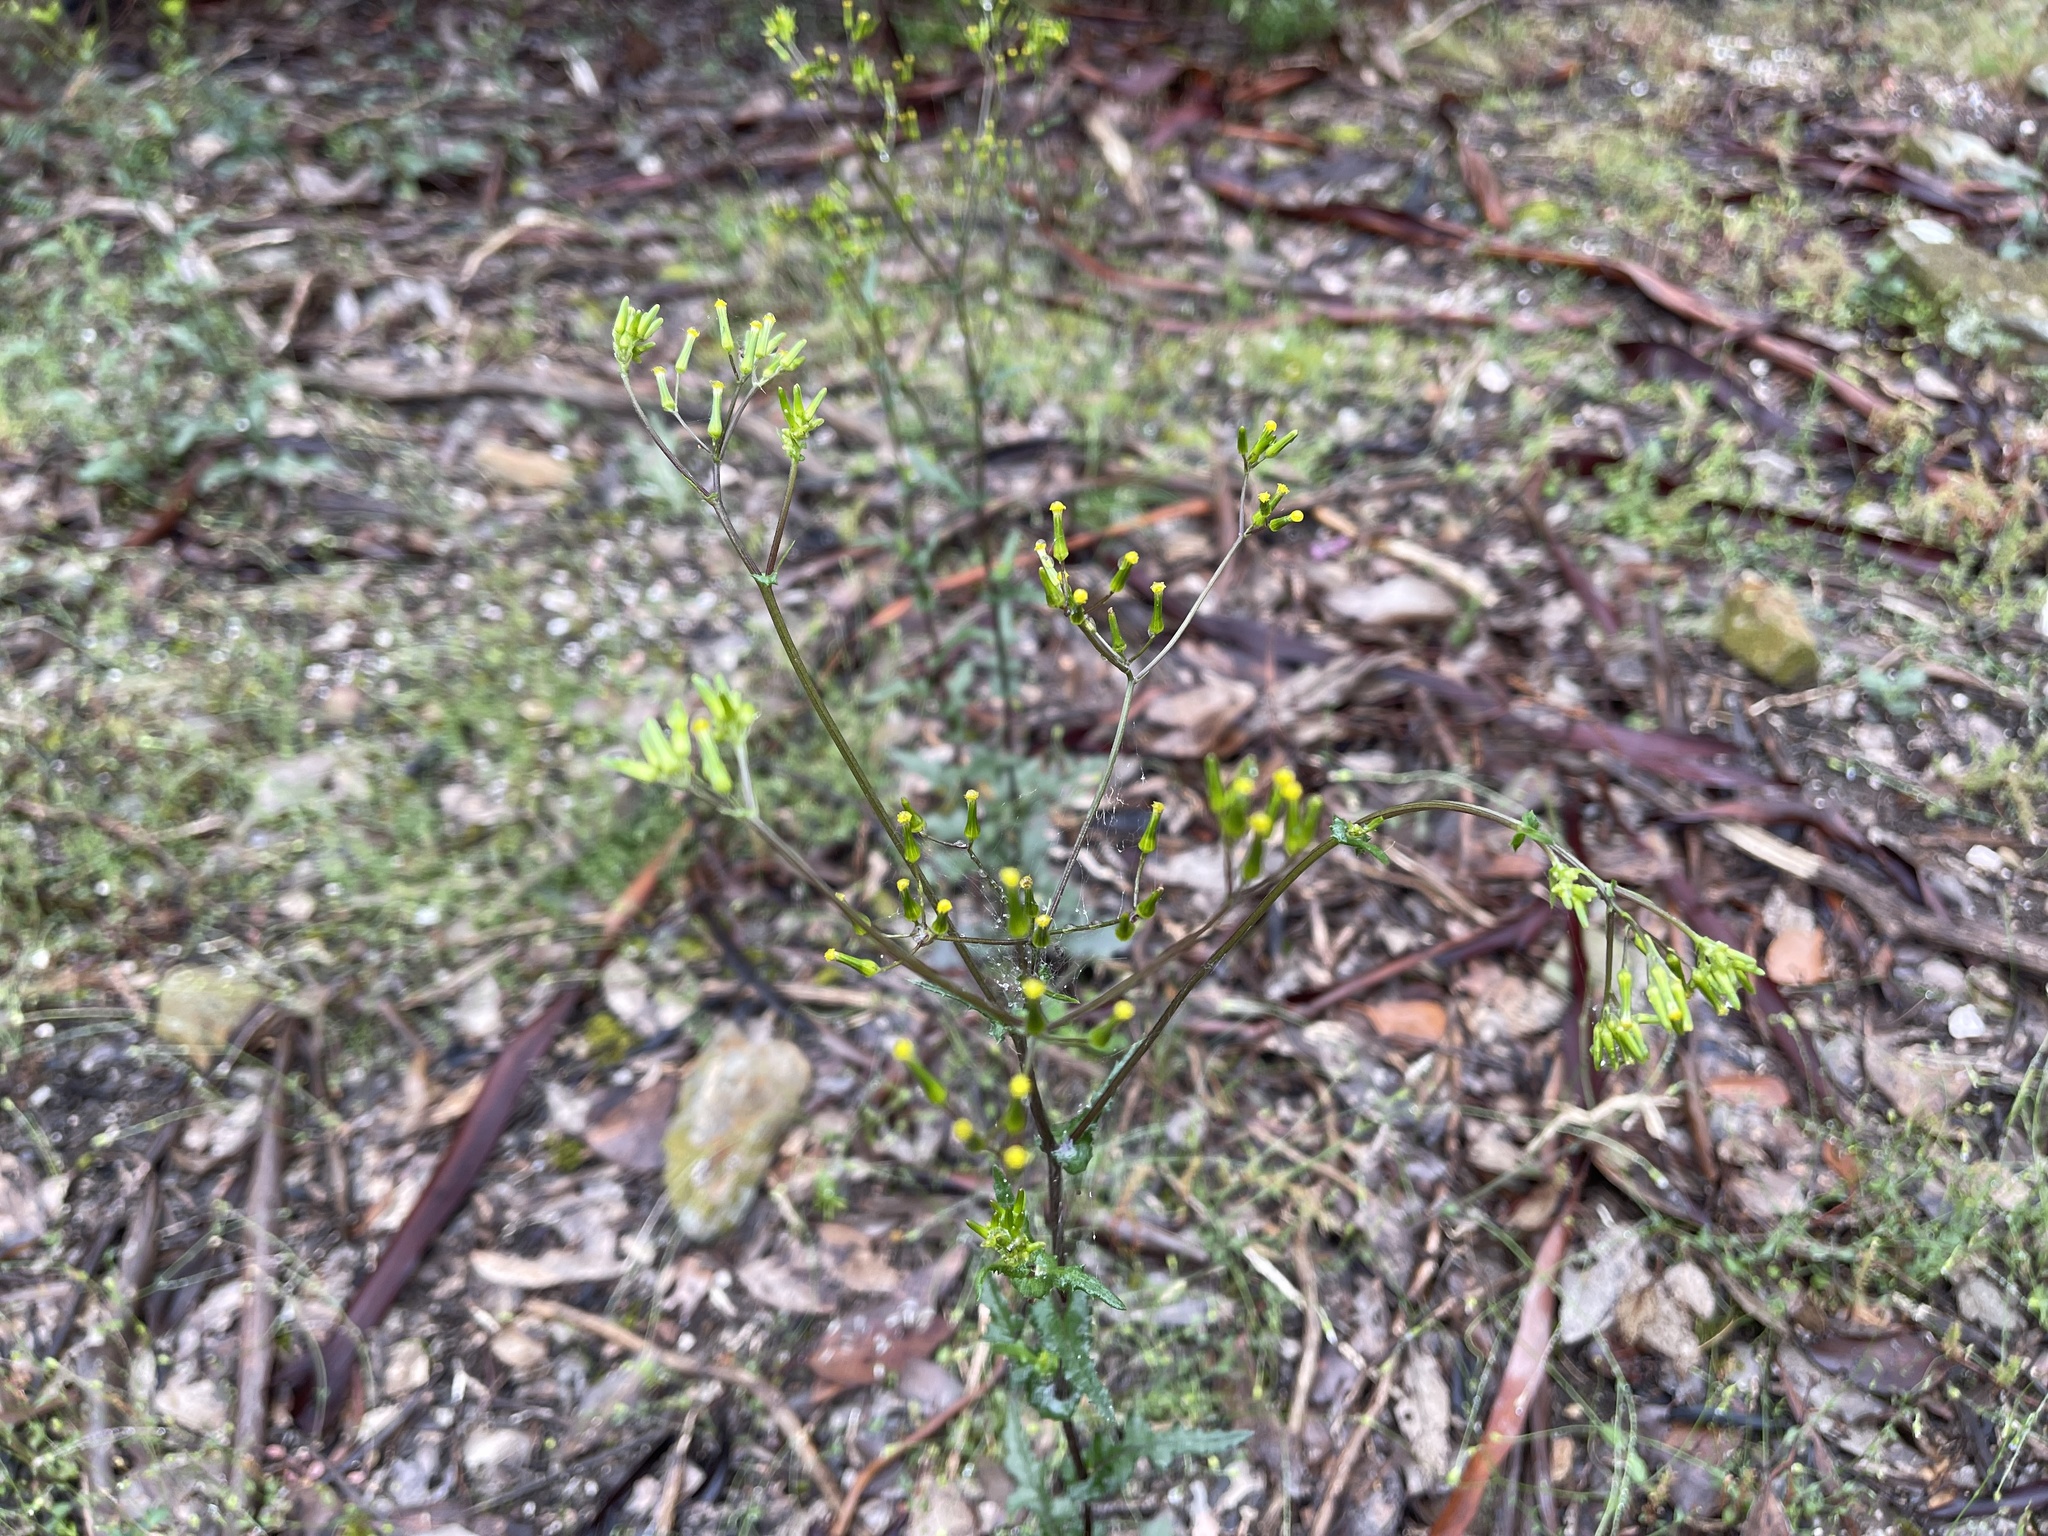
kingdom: Plantae
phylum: Tracheophyta
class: Magnoliopsida
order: Asterales
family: Asteraceae
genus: Senecio
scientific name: Senecio picridioides
